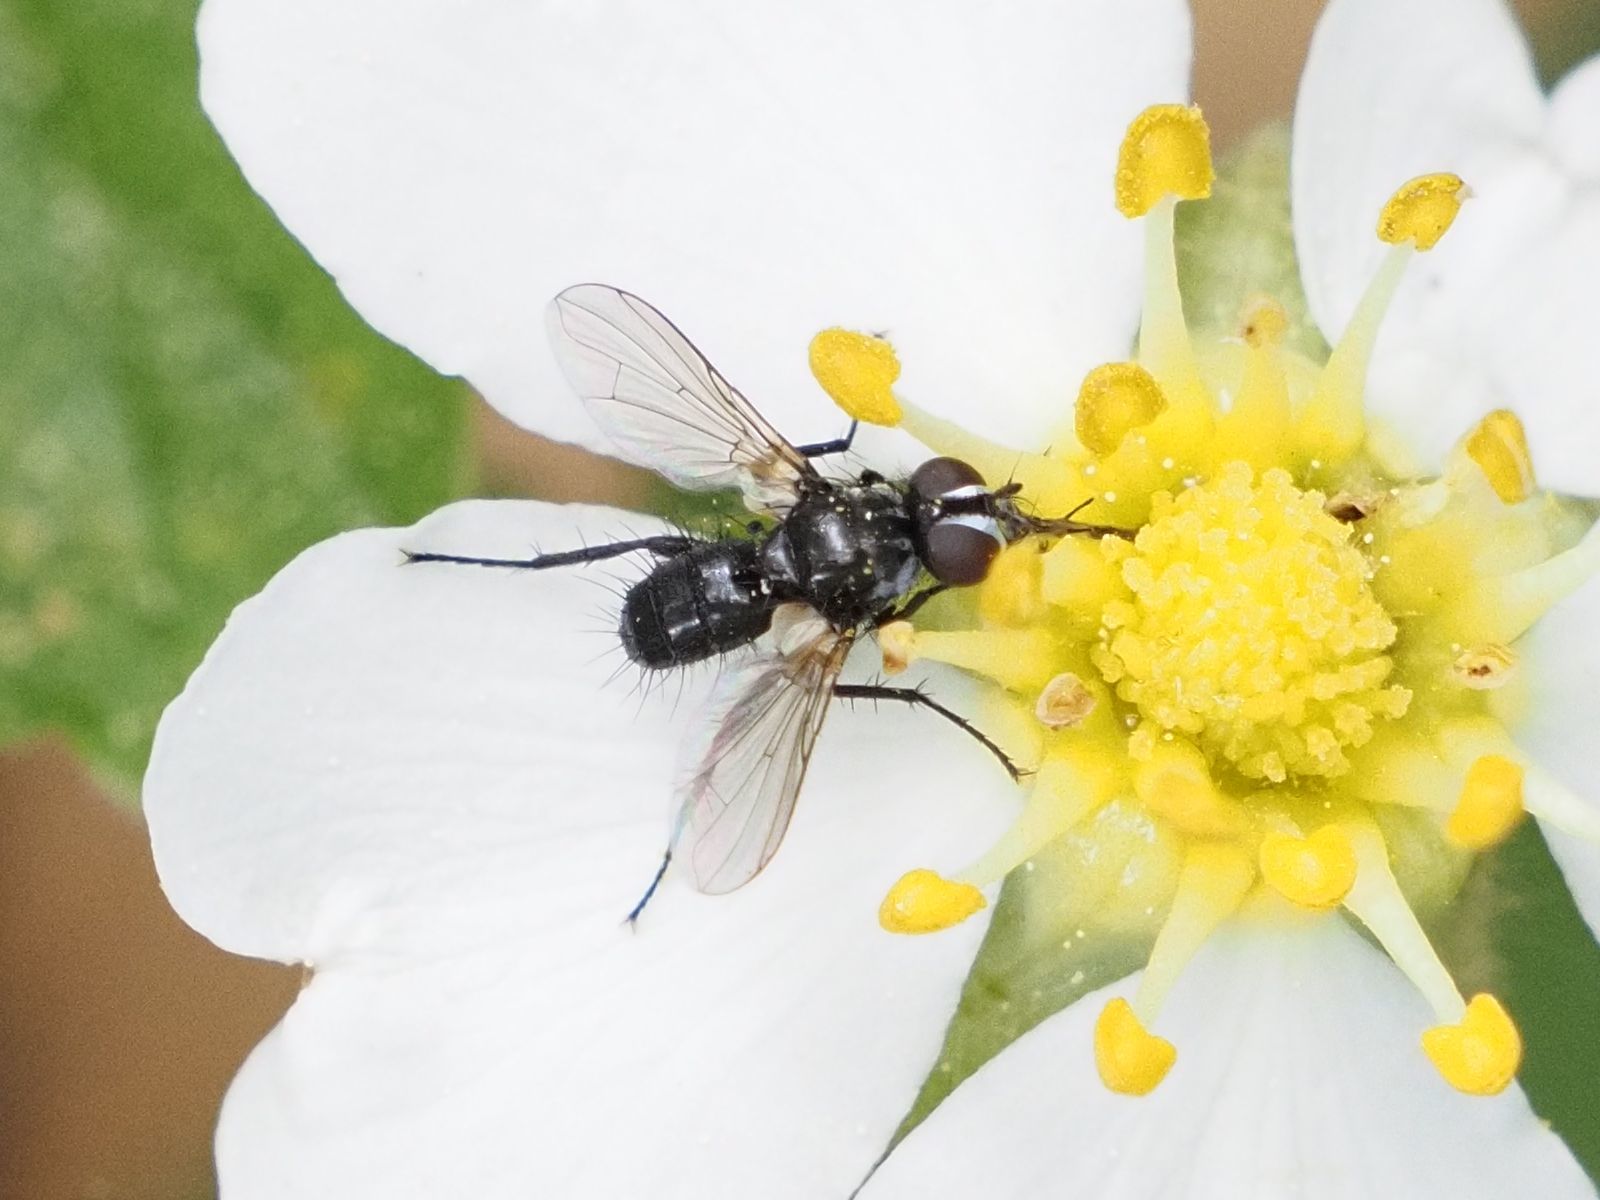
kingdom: Animalia
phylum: Arthropoda
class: Insecta
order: Diptera
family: Tachinidae
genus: Phania
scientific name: Phania funesta
